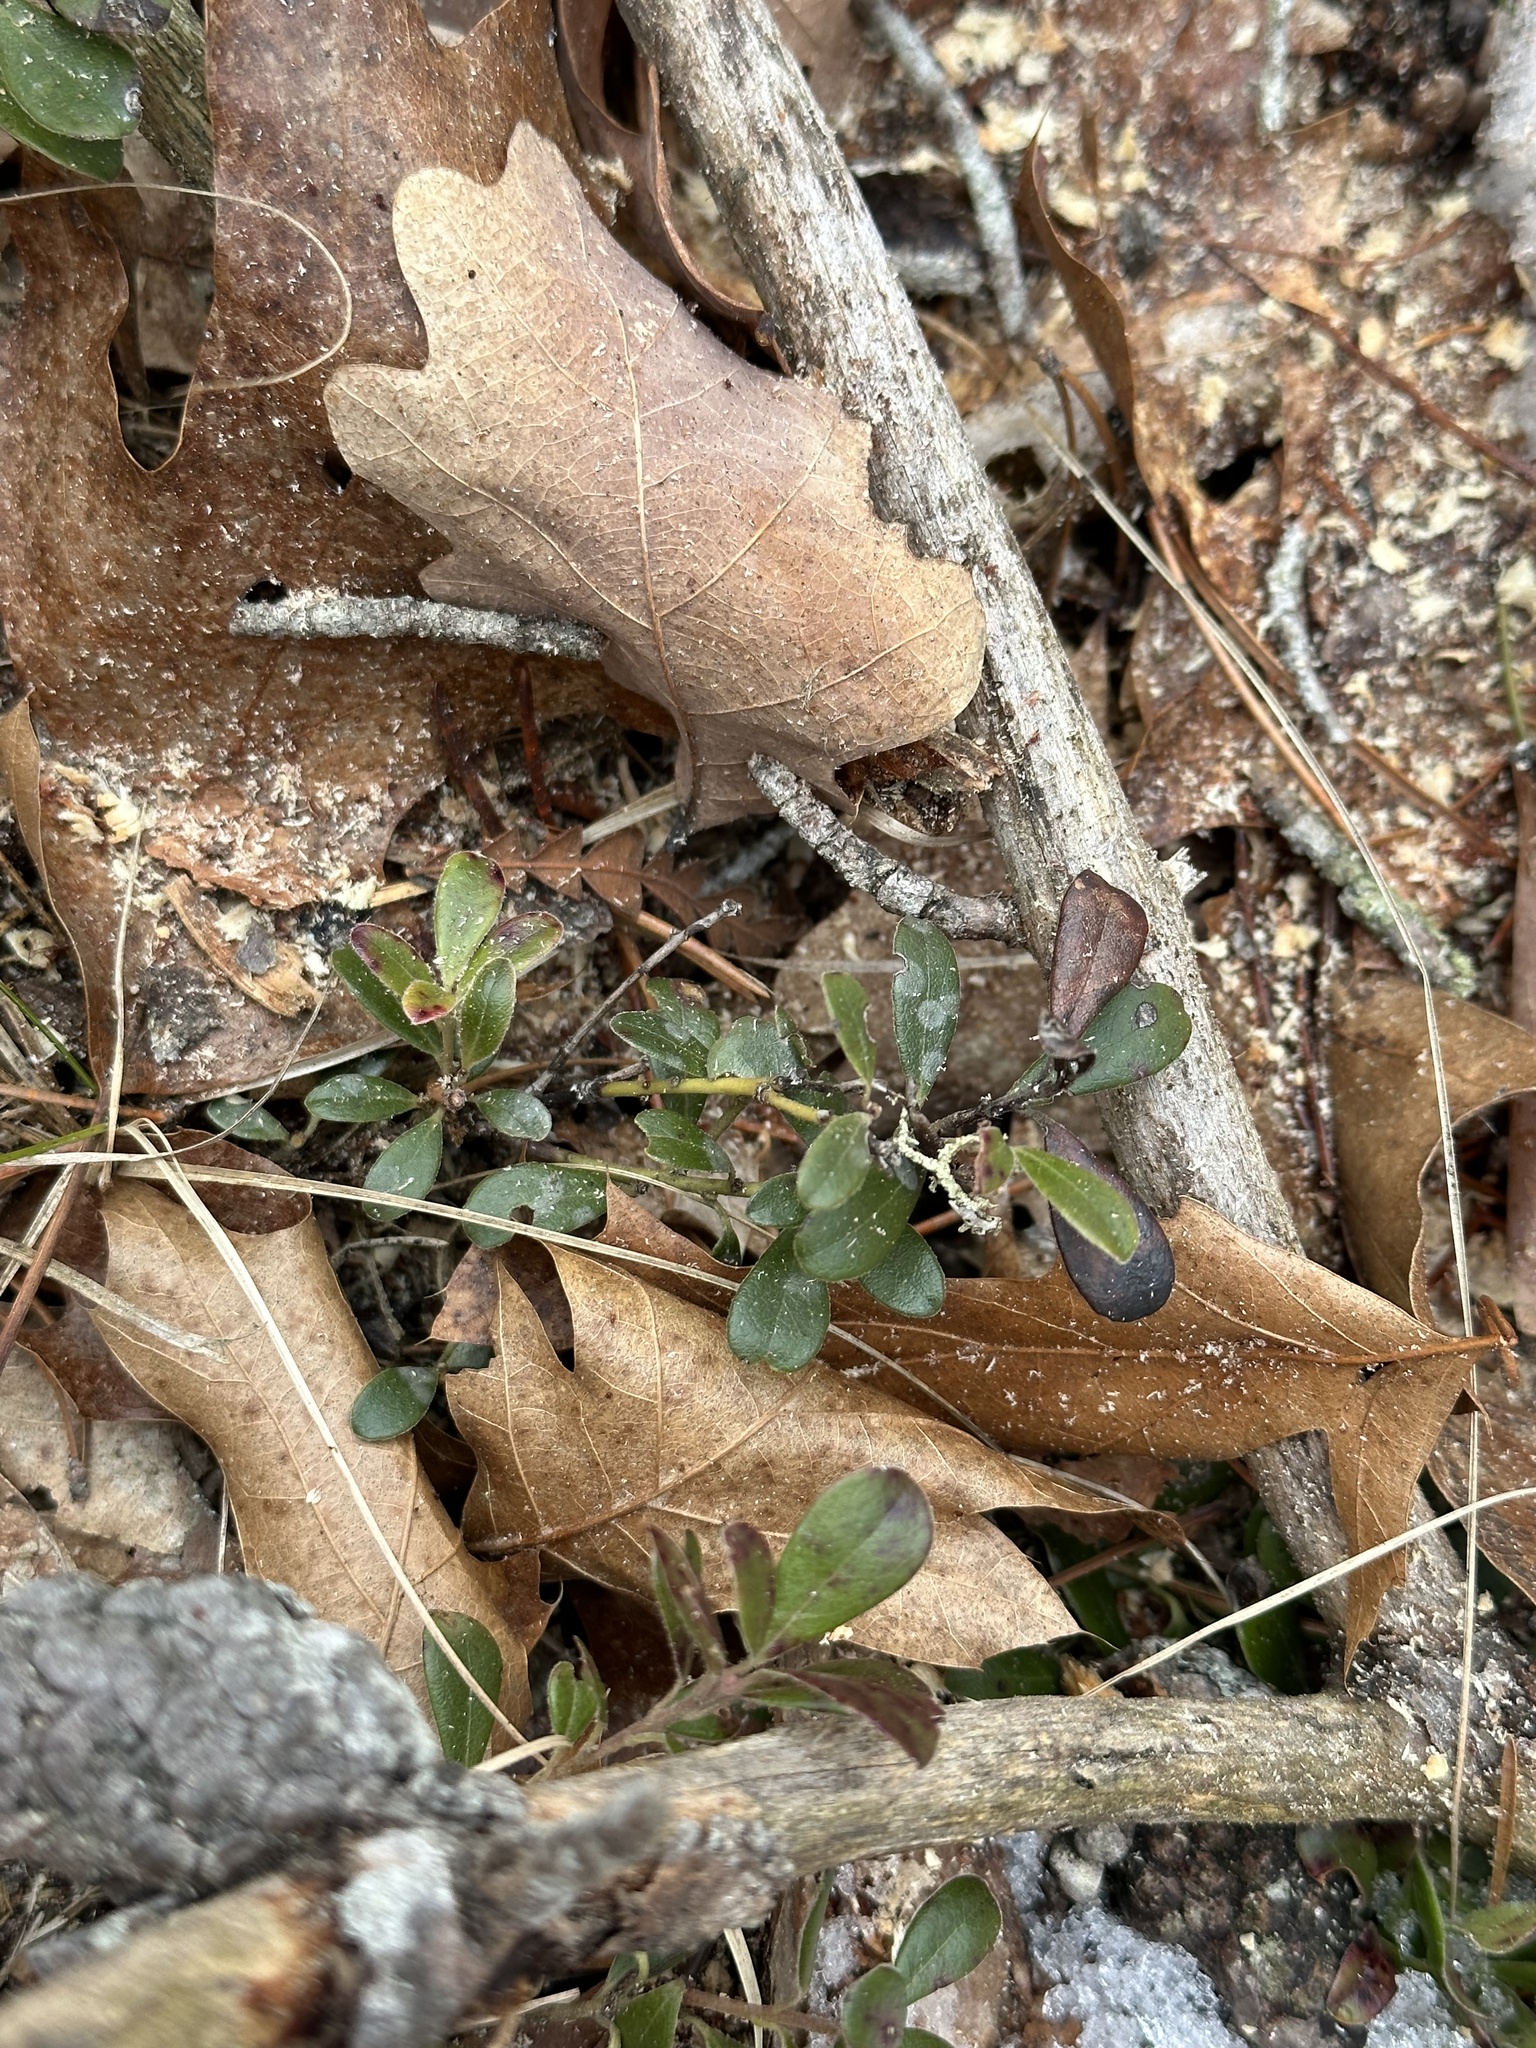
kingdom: Plantae
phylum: Tracheophyta
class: Magnoliopsida
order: Ericales
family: Ericaceae
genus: Arctostaphylos
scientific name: Arctostaphylos uva-ursi
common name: Bearberry
